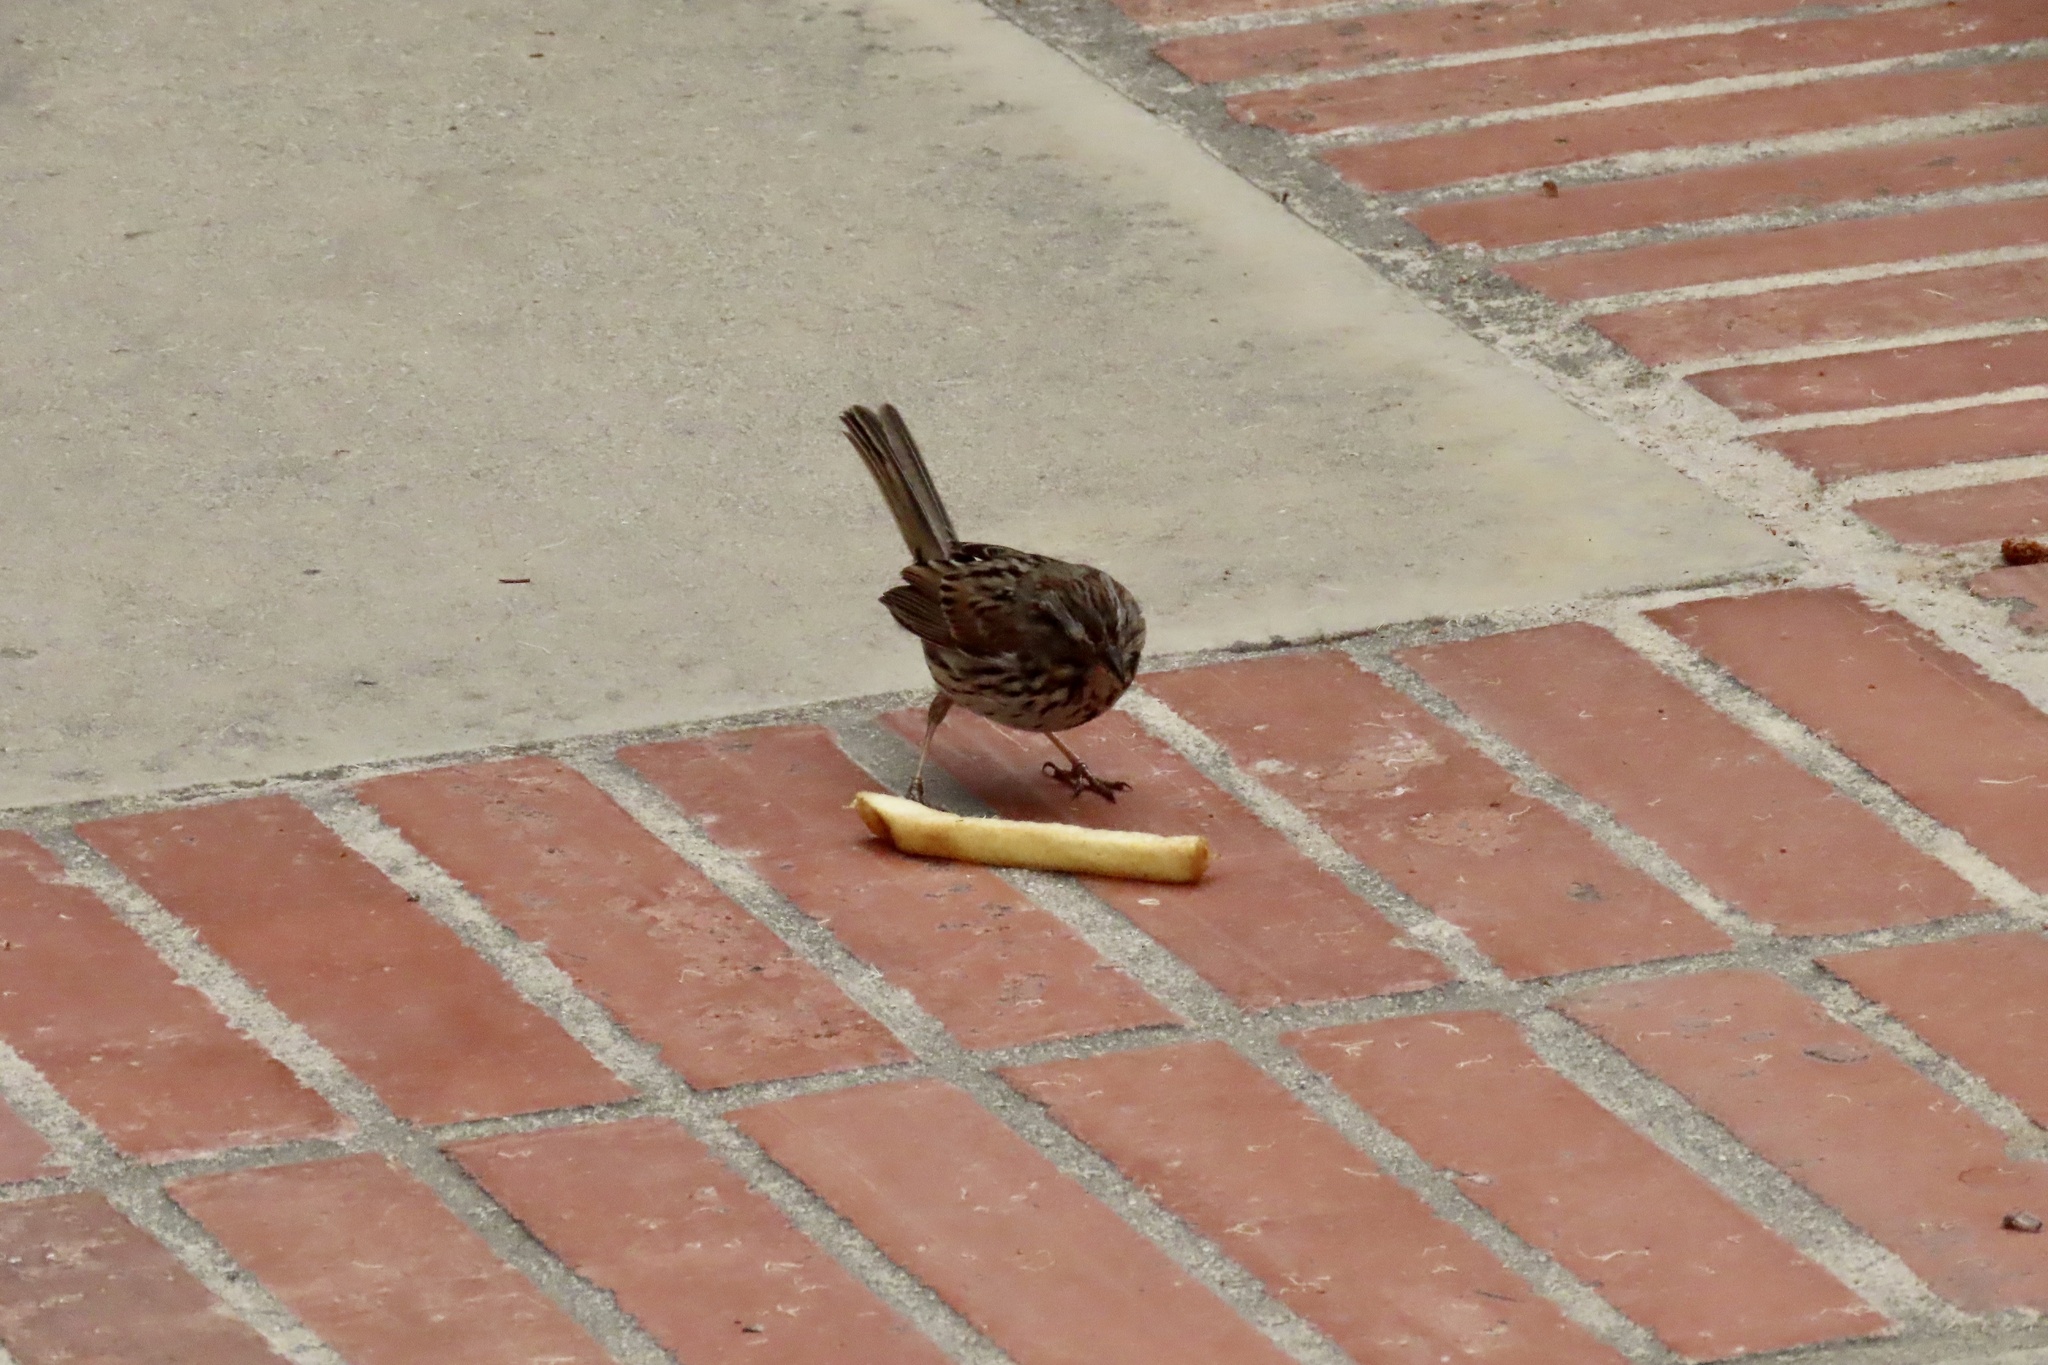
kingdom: Animalia
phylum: Chordata
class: Aves
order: Passeriformes
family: Passerellidae
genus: Melospiza
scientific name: Melospiza melodia
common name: Song sparrow
